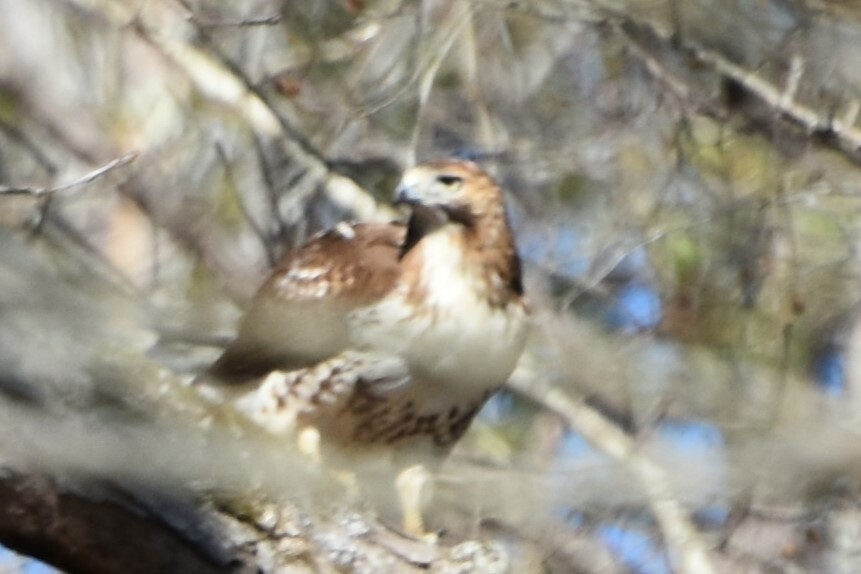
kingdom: Animalia
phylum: Chordata
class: Aves
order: Accipitriformes
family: Accipitridae
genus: Buteo
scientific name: Buteo jamaicensis
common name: Red-tailed hawk
